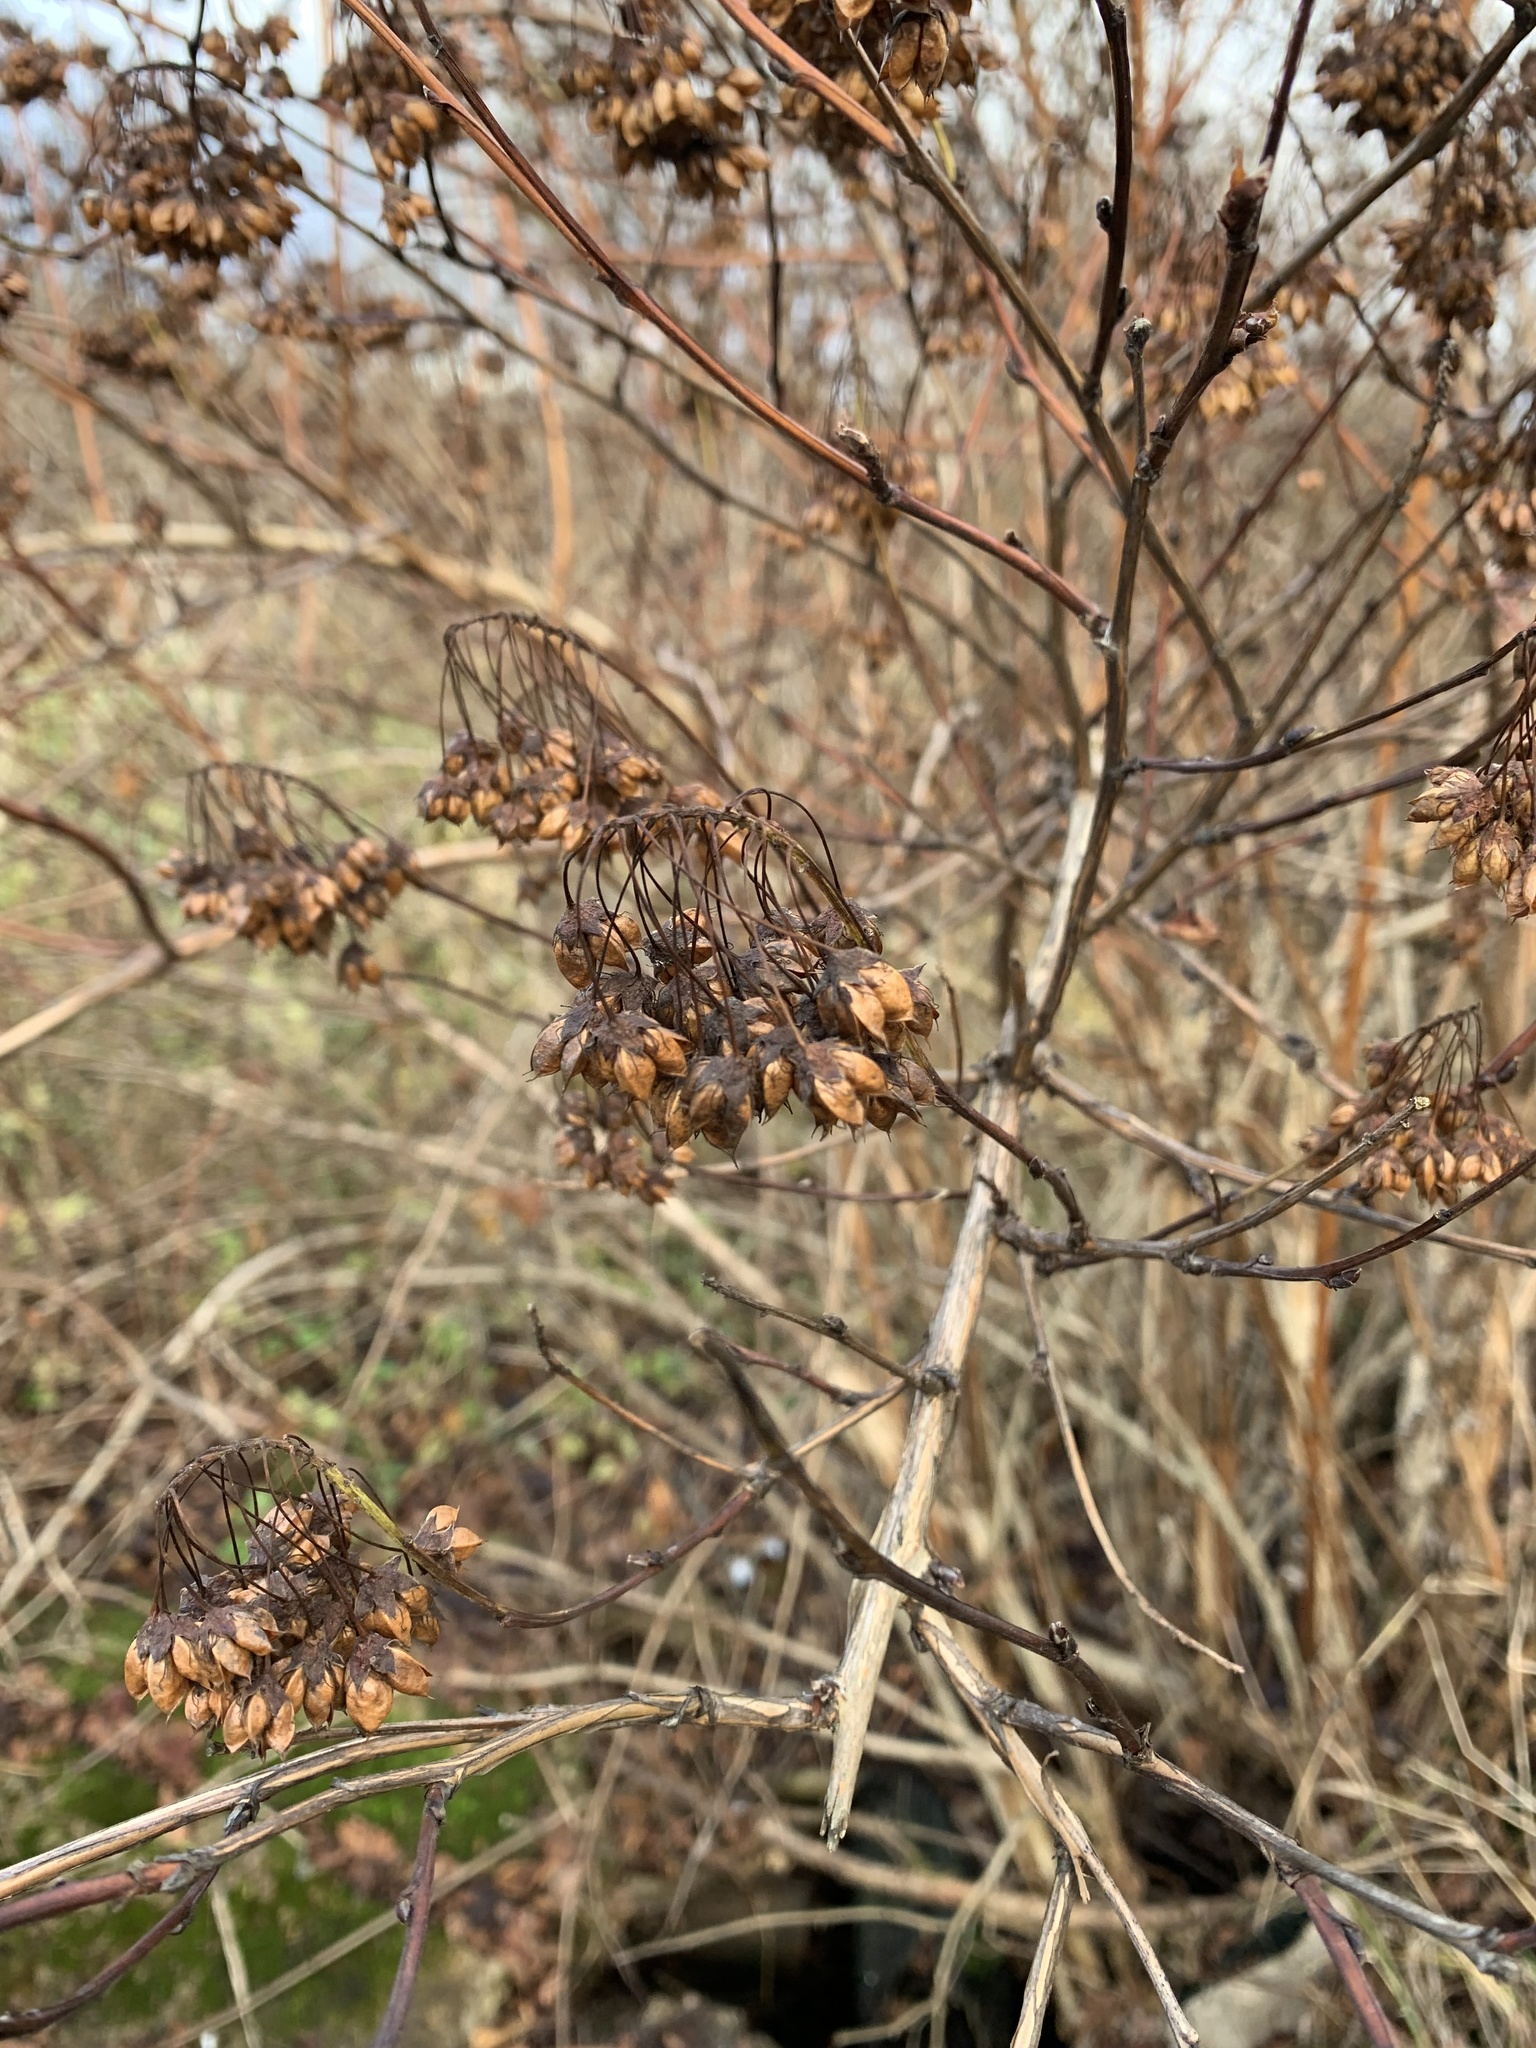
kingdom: Plantae
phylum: Tracheophyta
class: Magnoliopsida
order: Rosales
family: Rosaceae
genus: Physocarpus
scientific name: Physocarpus opulifolius
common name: Ninebark
